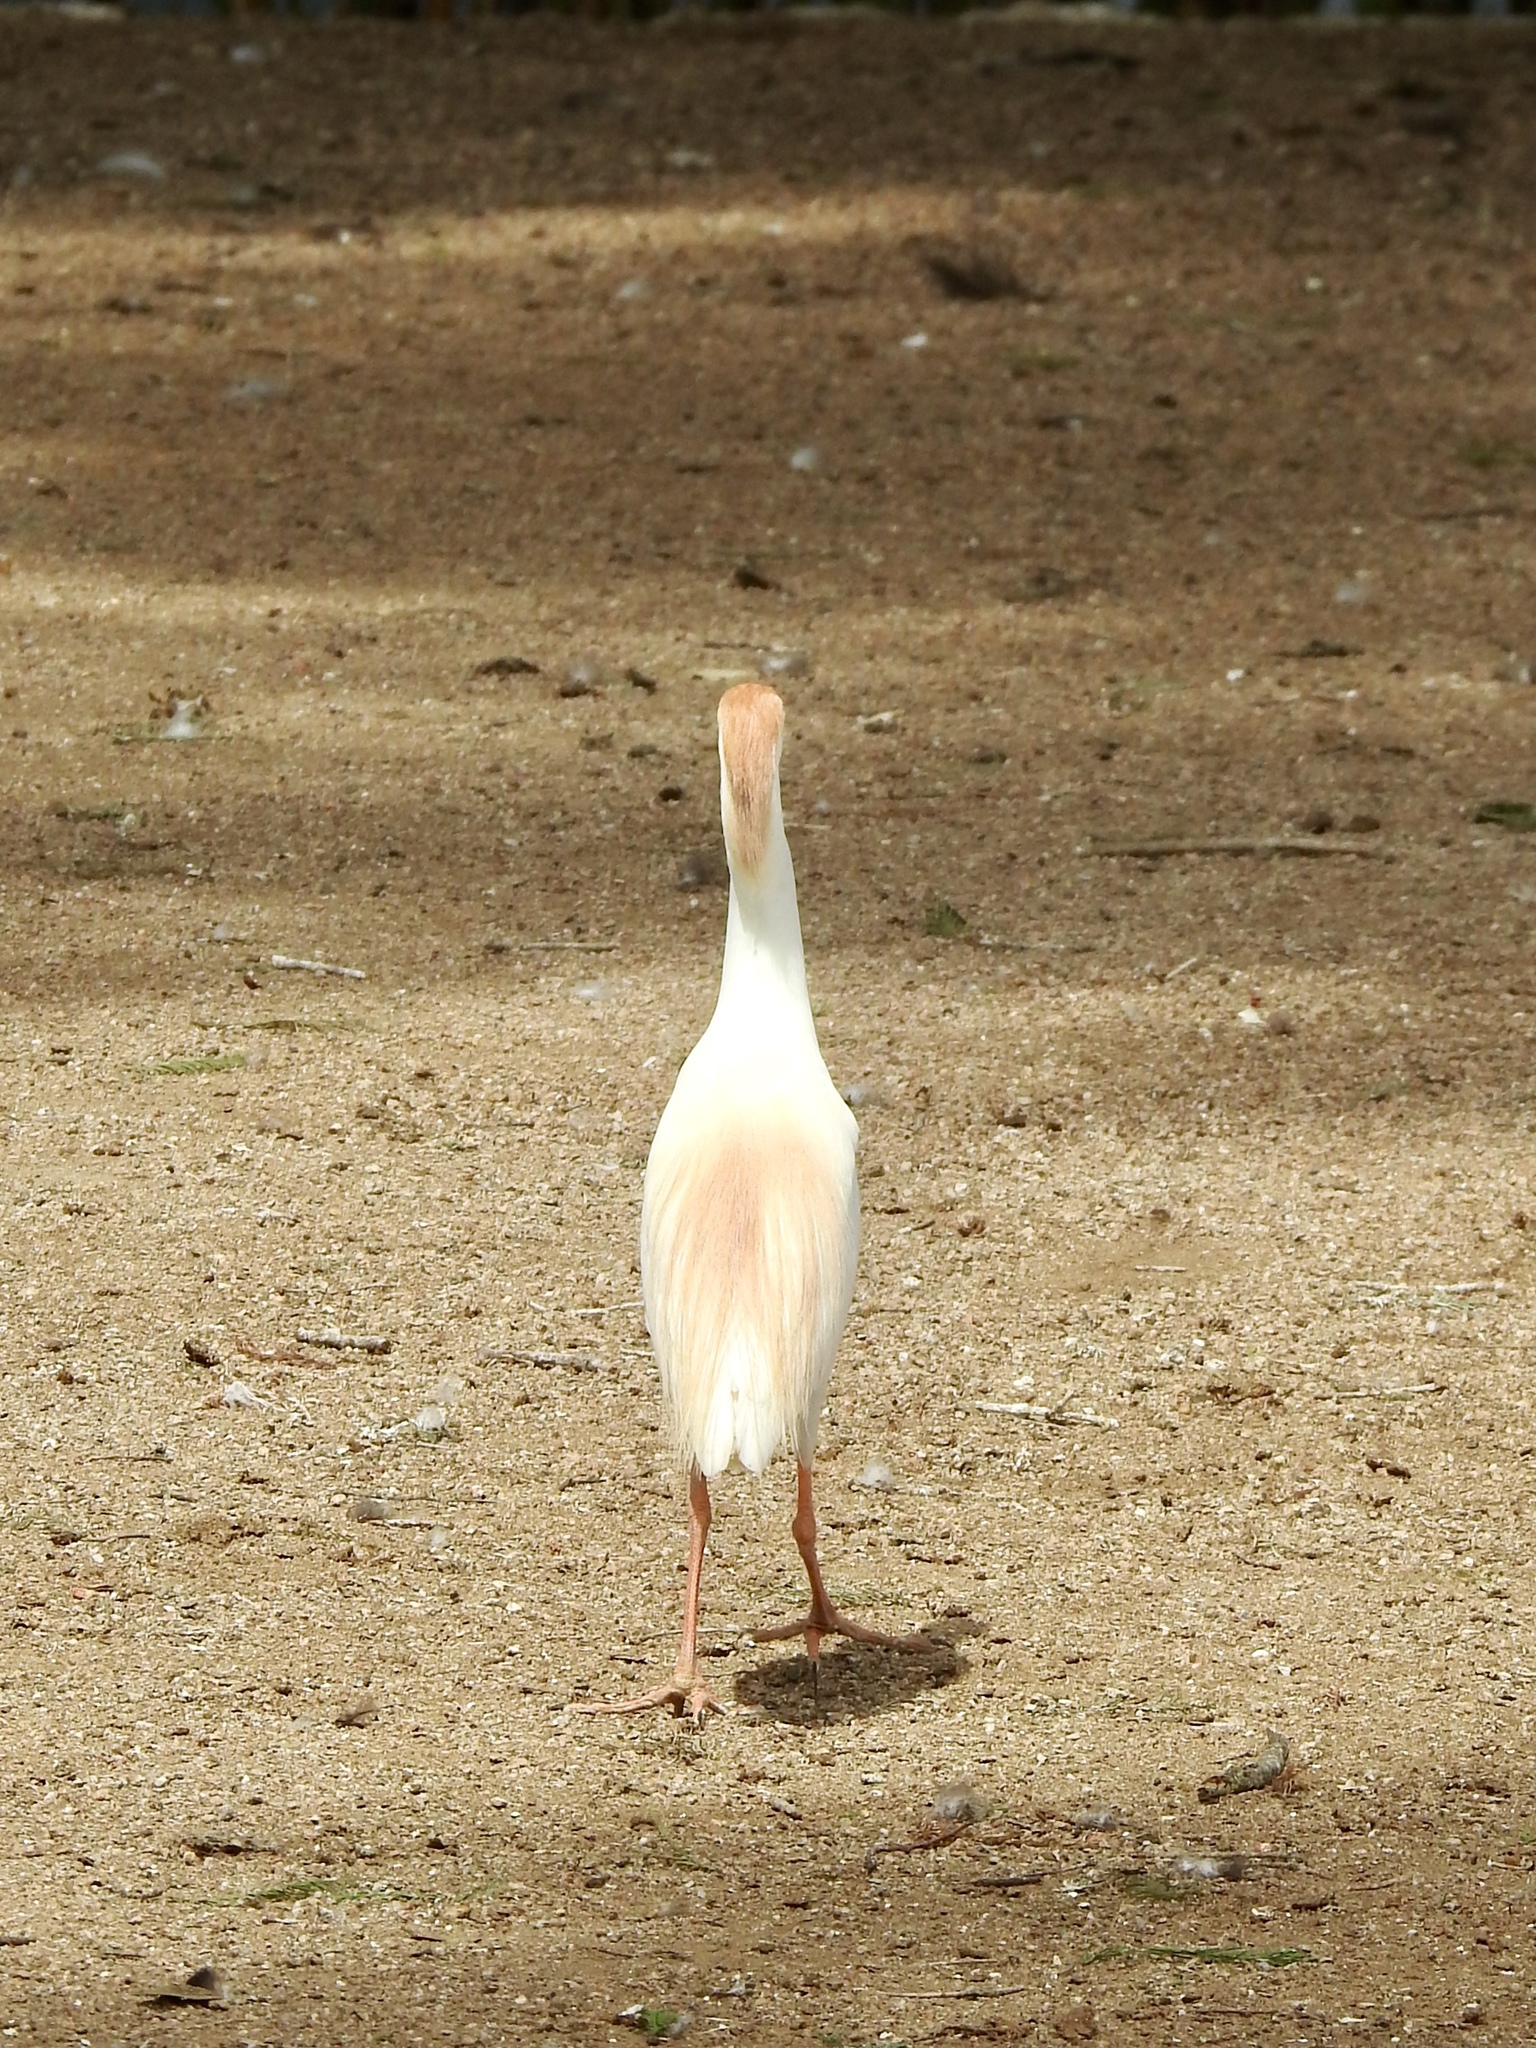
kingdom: Animalia
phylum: Chordata
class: Aves
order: Pelecaniformes
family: Ardeidae
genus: Bubulcus
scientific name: Bubulcus ibis
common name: Cattle egret
